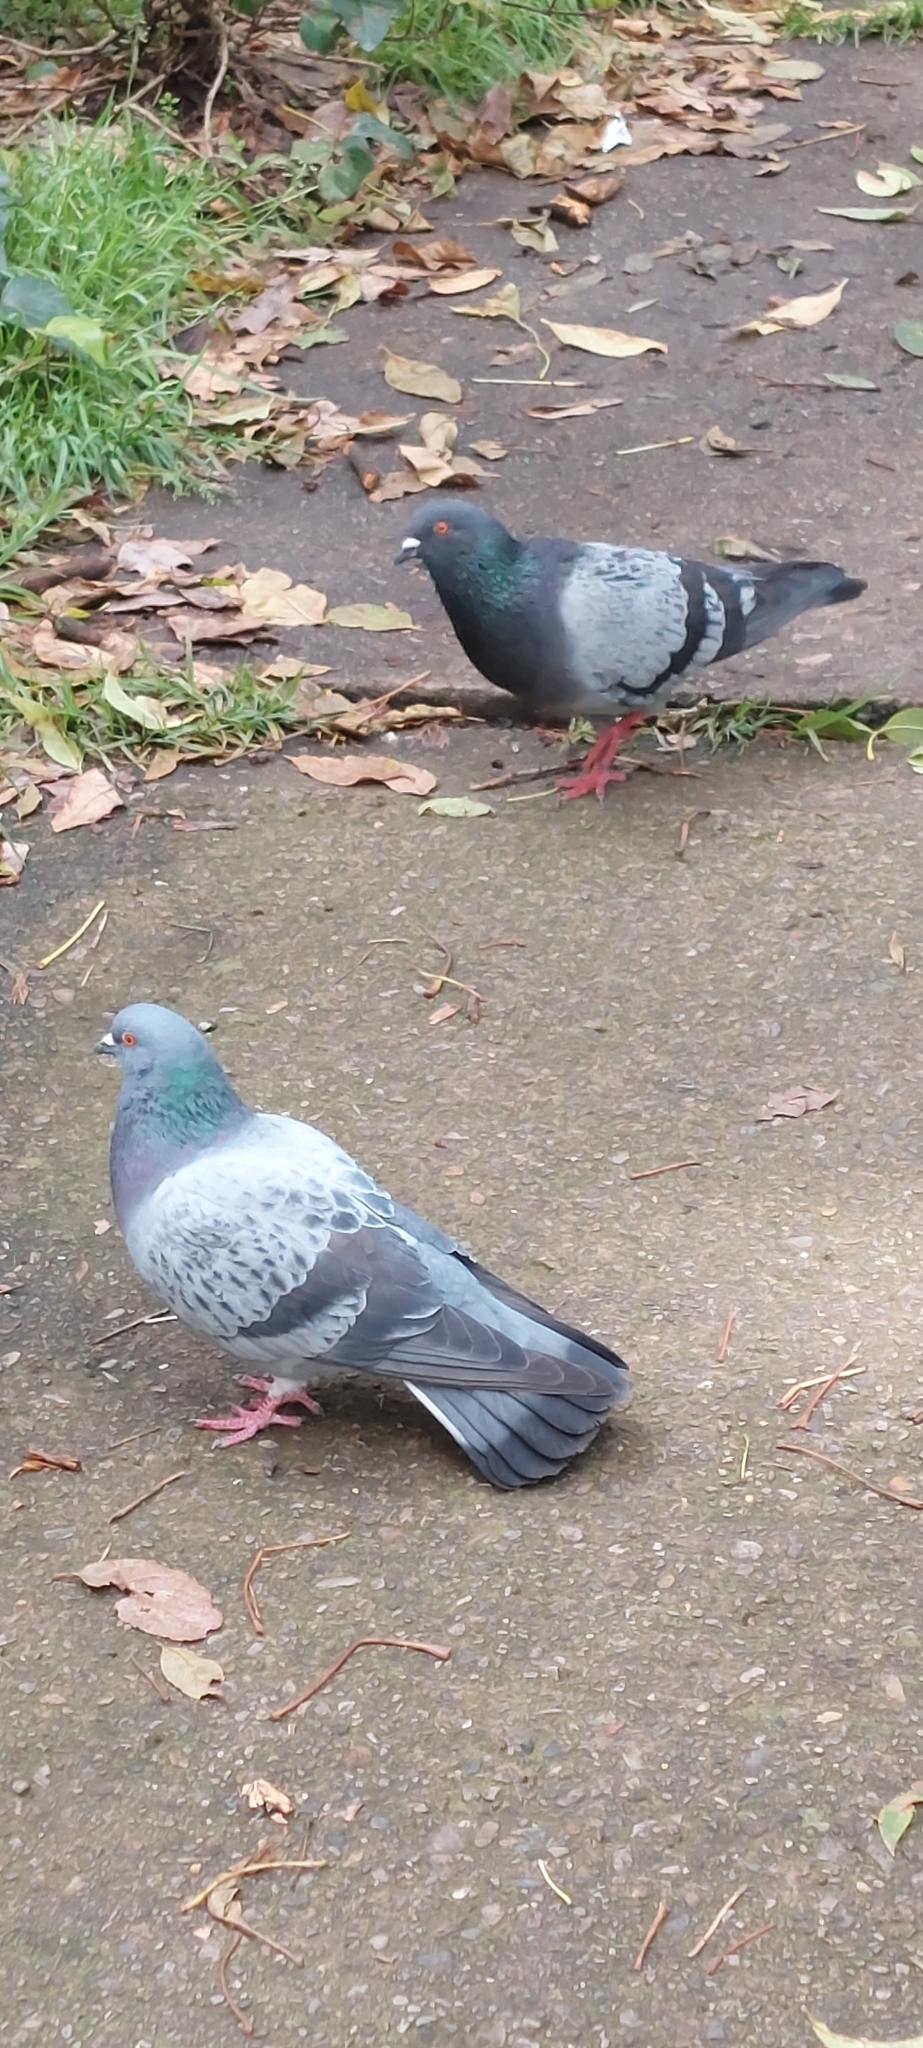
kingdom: Animalia
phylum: Chordata
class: Aves
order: Columbiformes
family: Columbidae
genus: Columba
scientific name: Columba livia
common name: Rock pigeon
